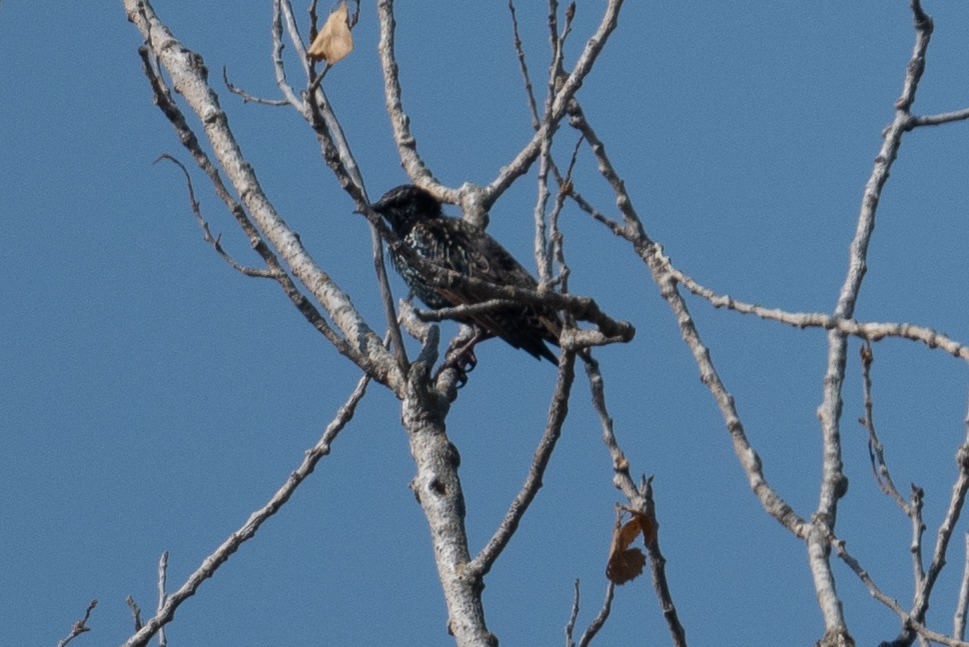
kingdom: Animalia
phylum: Chordata
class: Aves
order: Passeriformes
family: Sturnidae
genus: Sturnus
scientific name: Sturnus vulgaris
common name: Common starling
